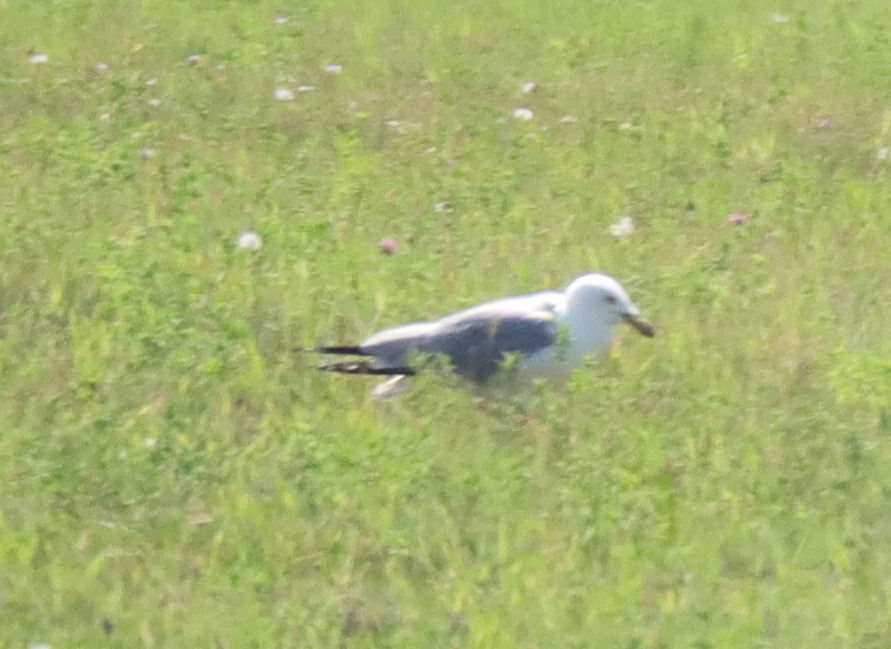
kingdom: Animalia
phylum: Chordata
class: Aves
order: Charadriiformes
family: Laridae
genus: Larus
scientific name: Larus delawarensis
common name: Ring-billed gull
